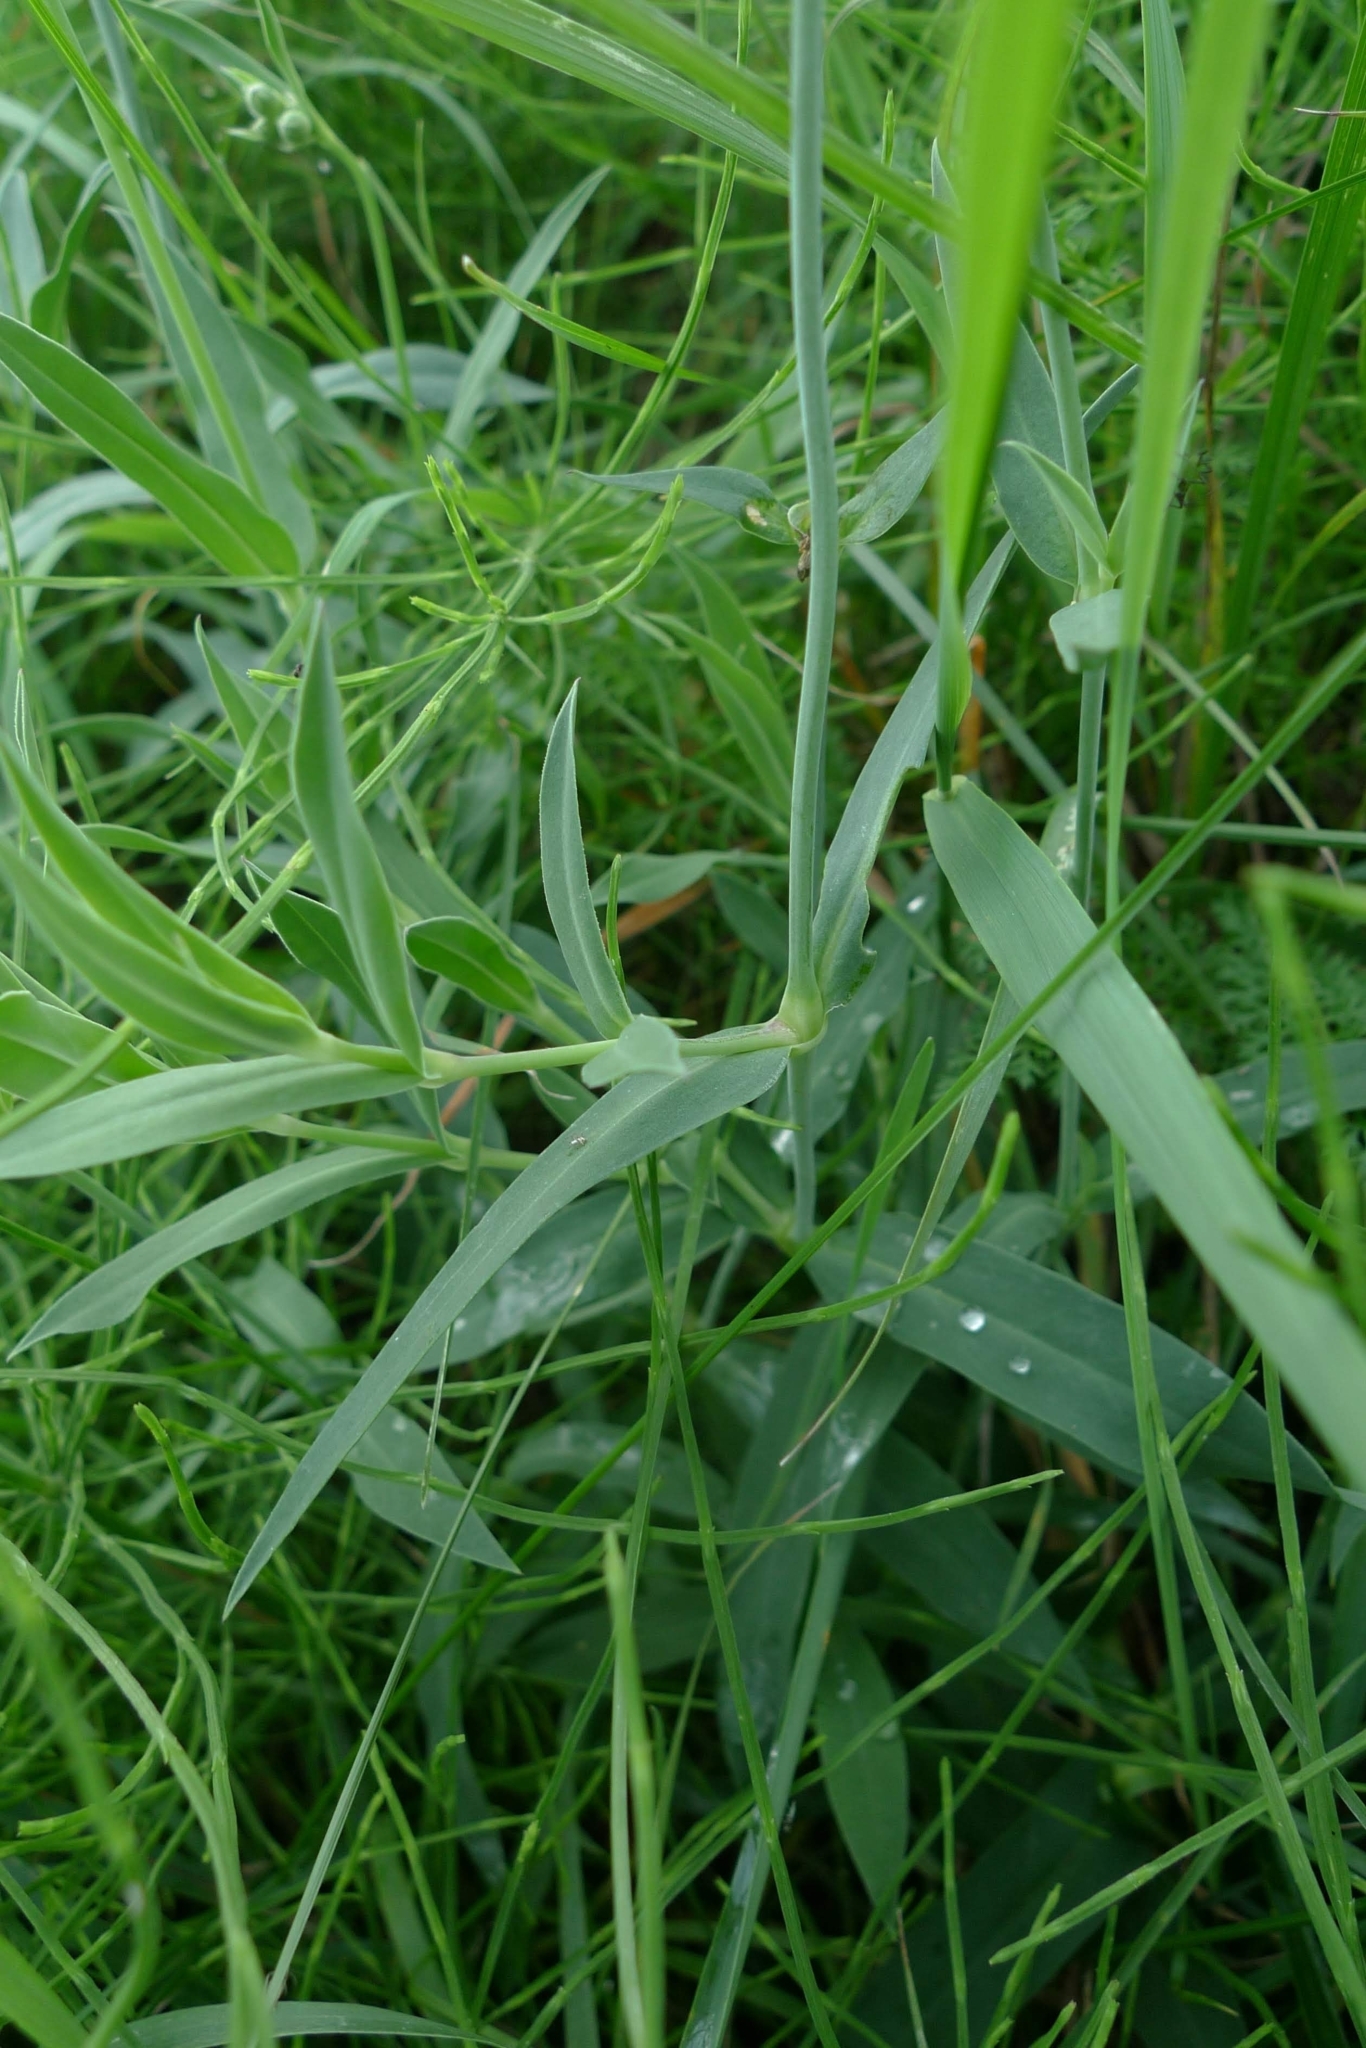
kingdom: Plantae
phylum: Tracheophyta
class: Magnoliopsida
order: Caryophyllales
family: Caryophyllaceae
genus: Silene
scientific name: Silene vulgaris
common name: Bladder campion
